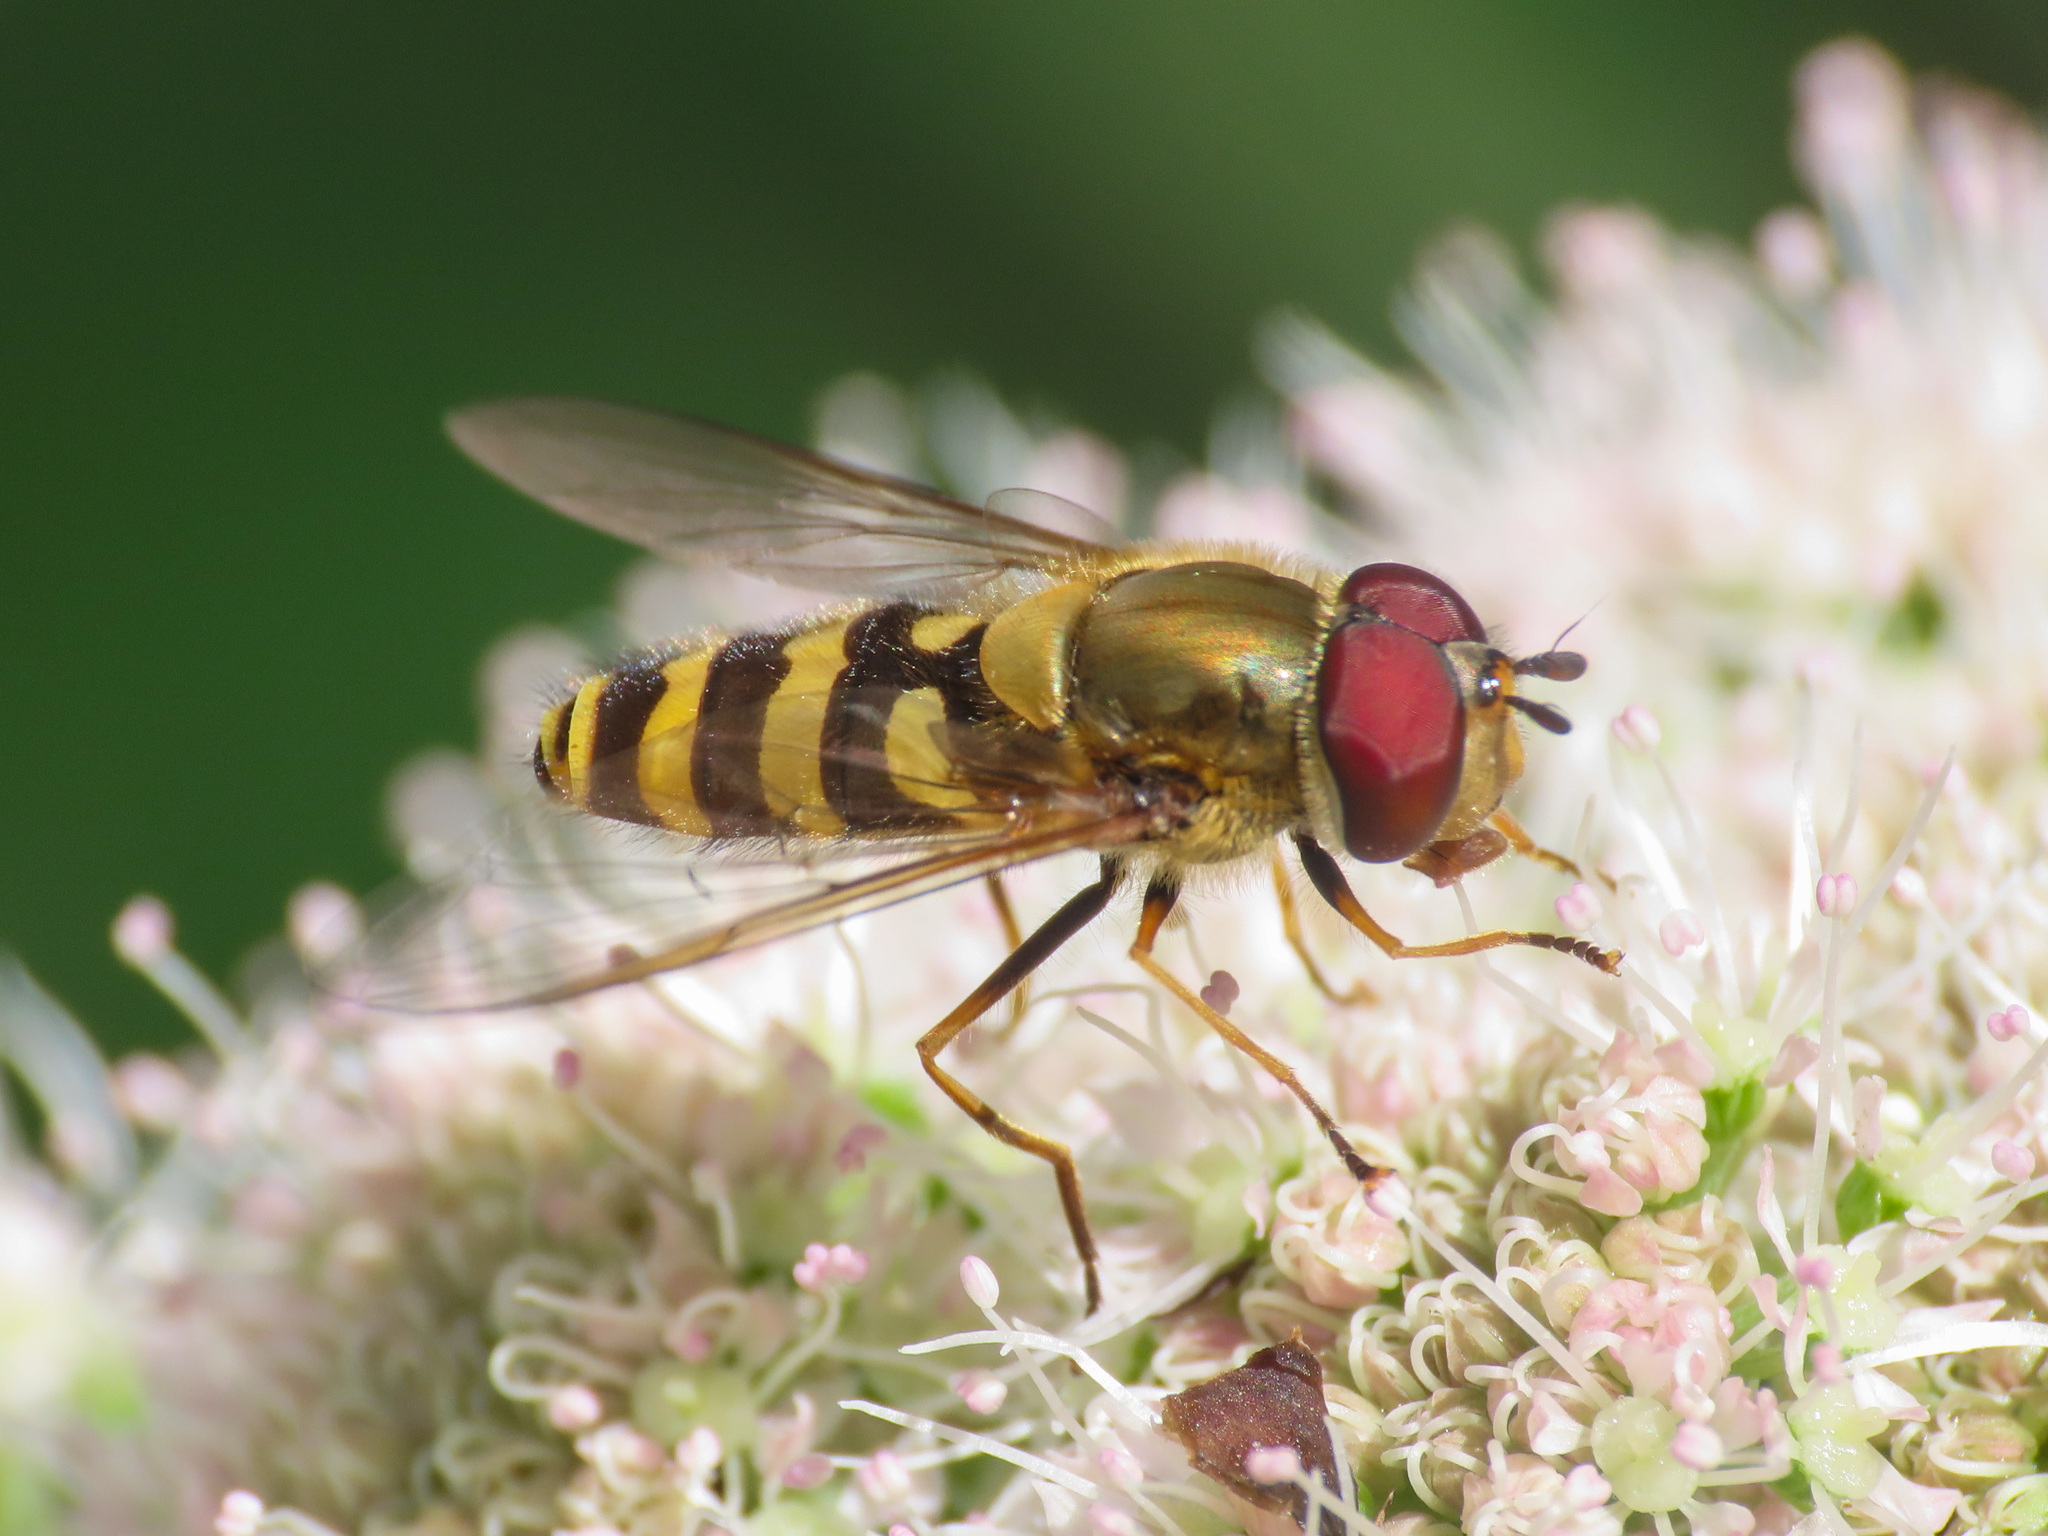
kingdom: Animalia
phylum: Arthropoda
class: Insecta
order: Diptera
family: Syrphidae
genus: Syrphus
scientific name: Syrphus
